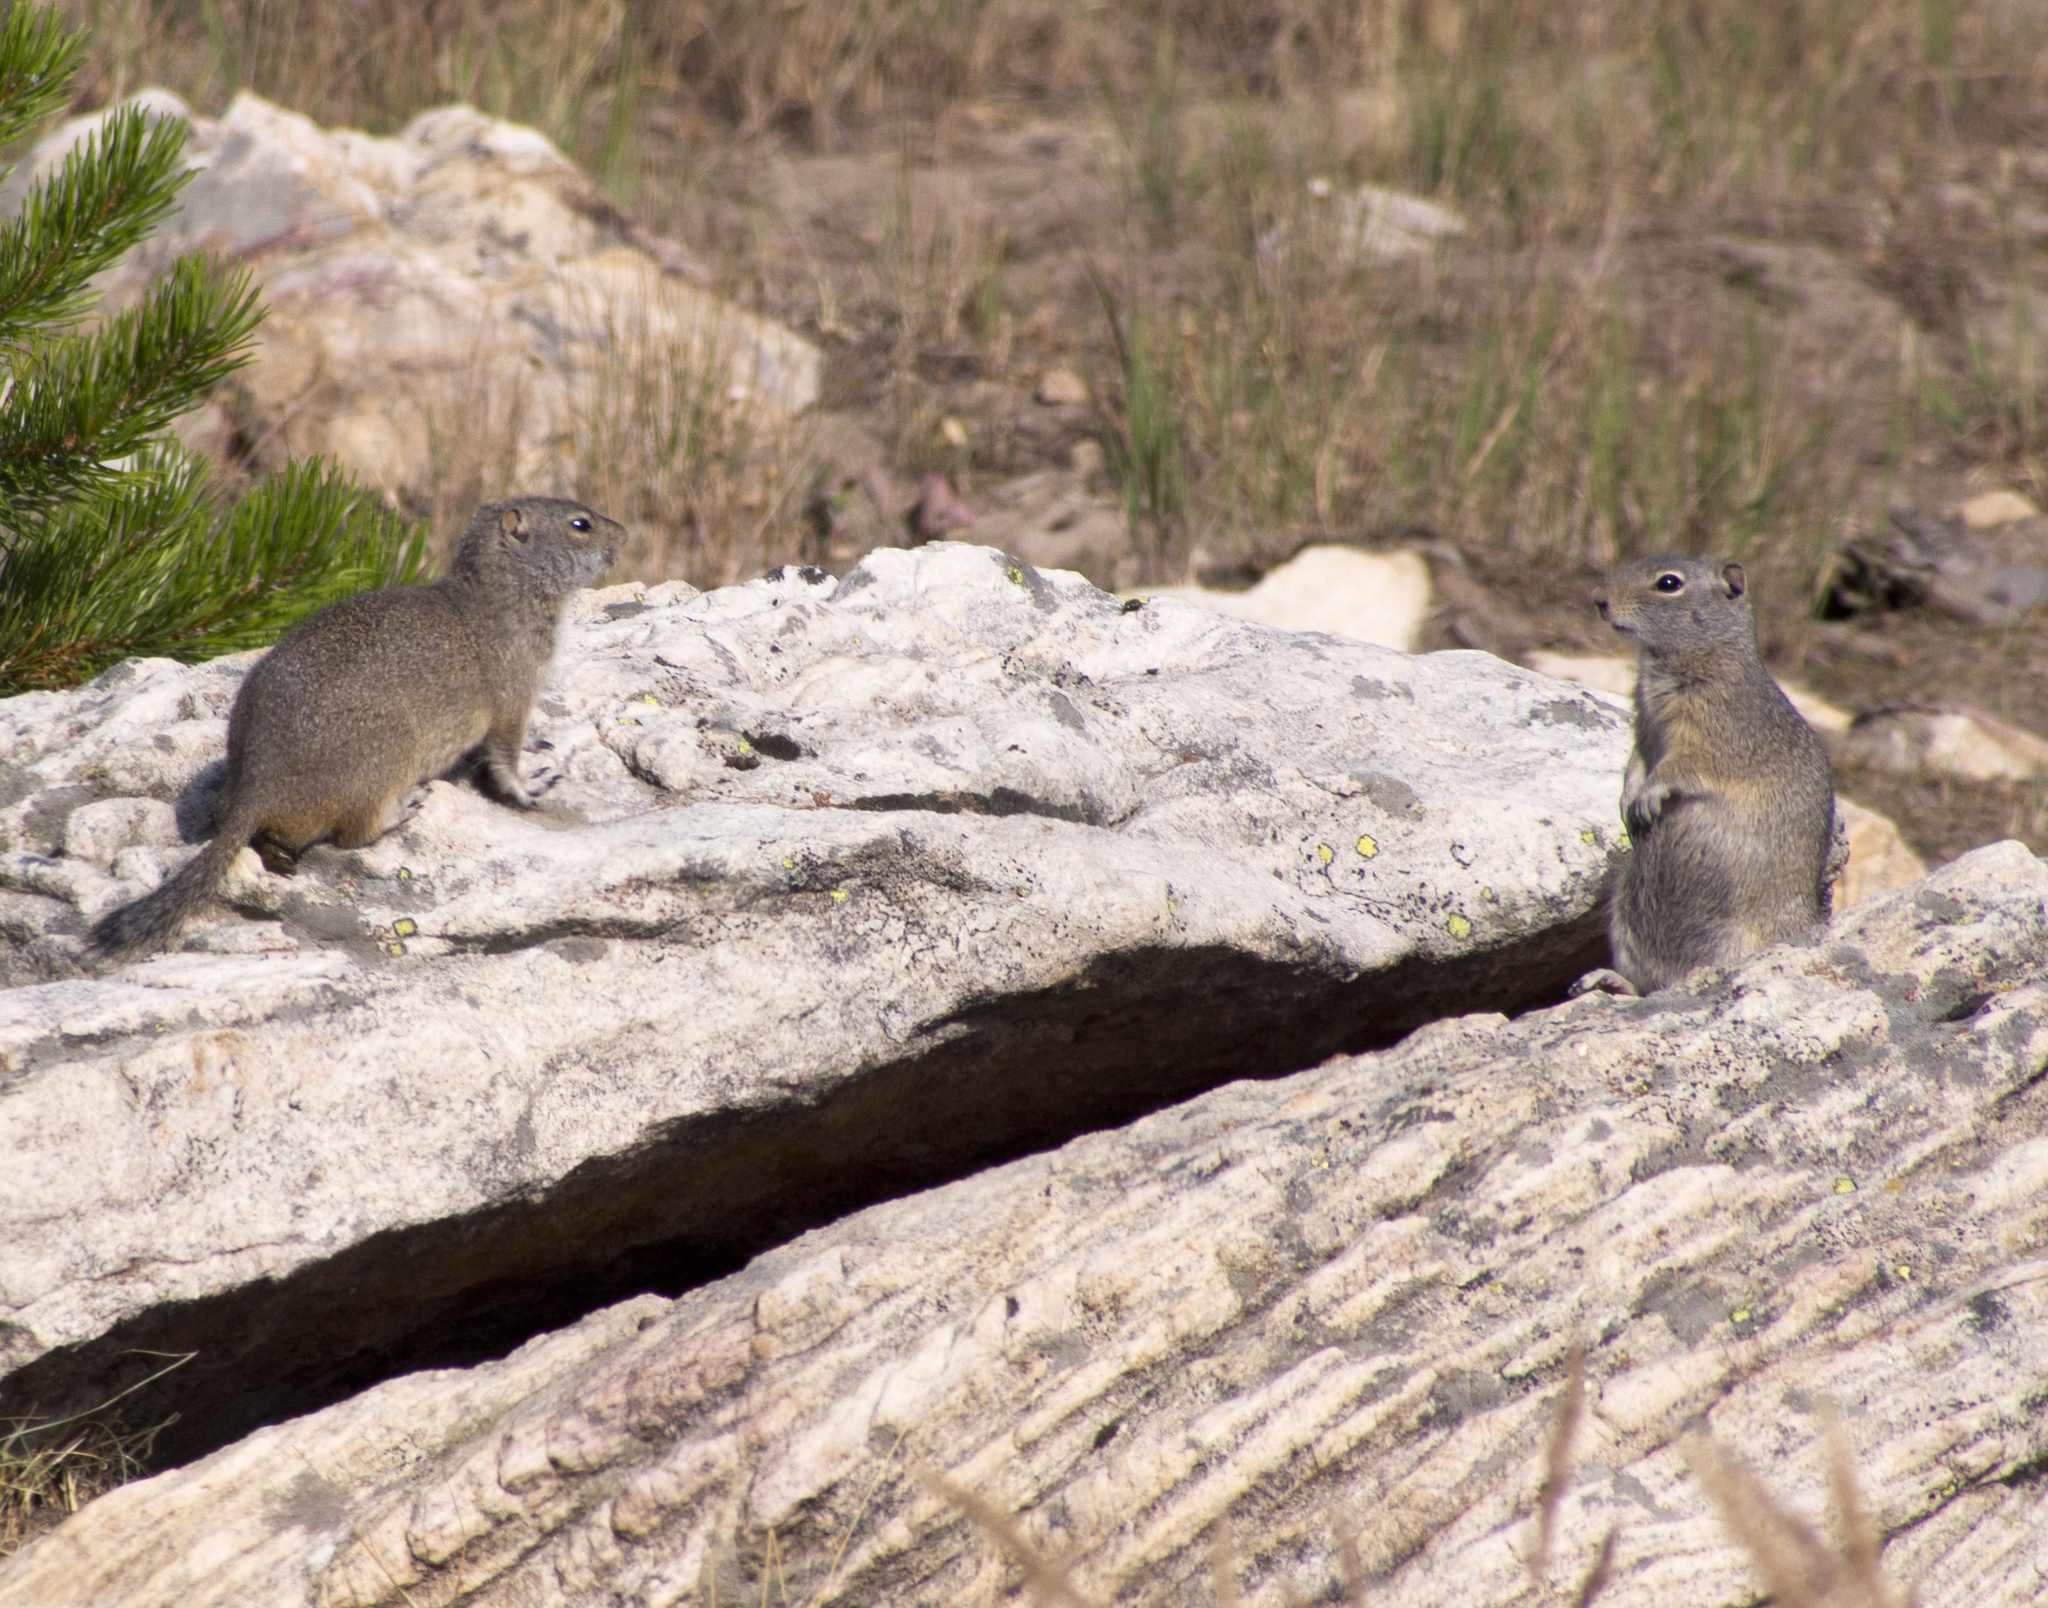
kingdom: Animalia
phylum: Chordata
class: Mammalia
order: Rodentia
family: Sciuridae
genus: Urocitellus
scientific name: Urocitellus armatus
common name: Uinta ground squirrel
